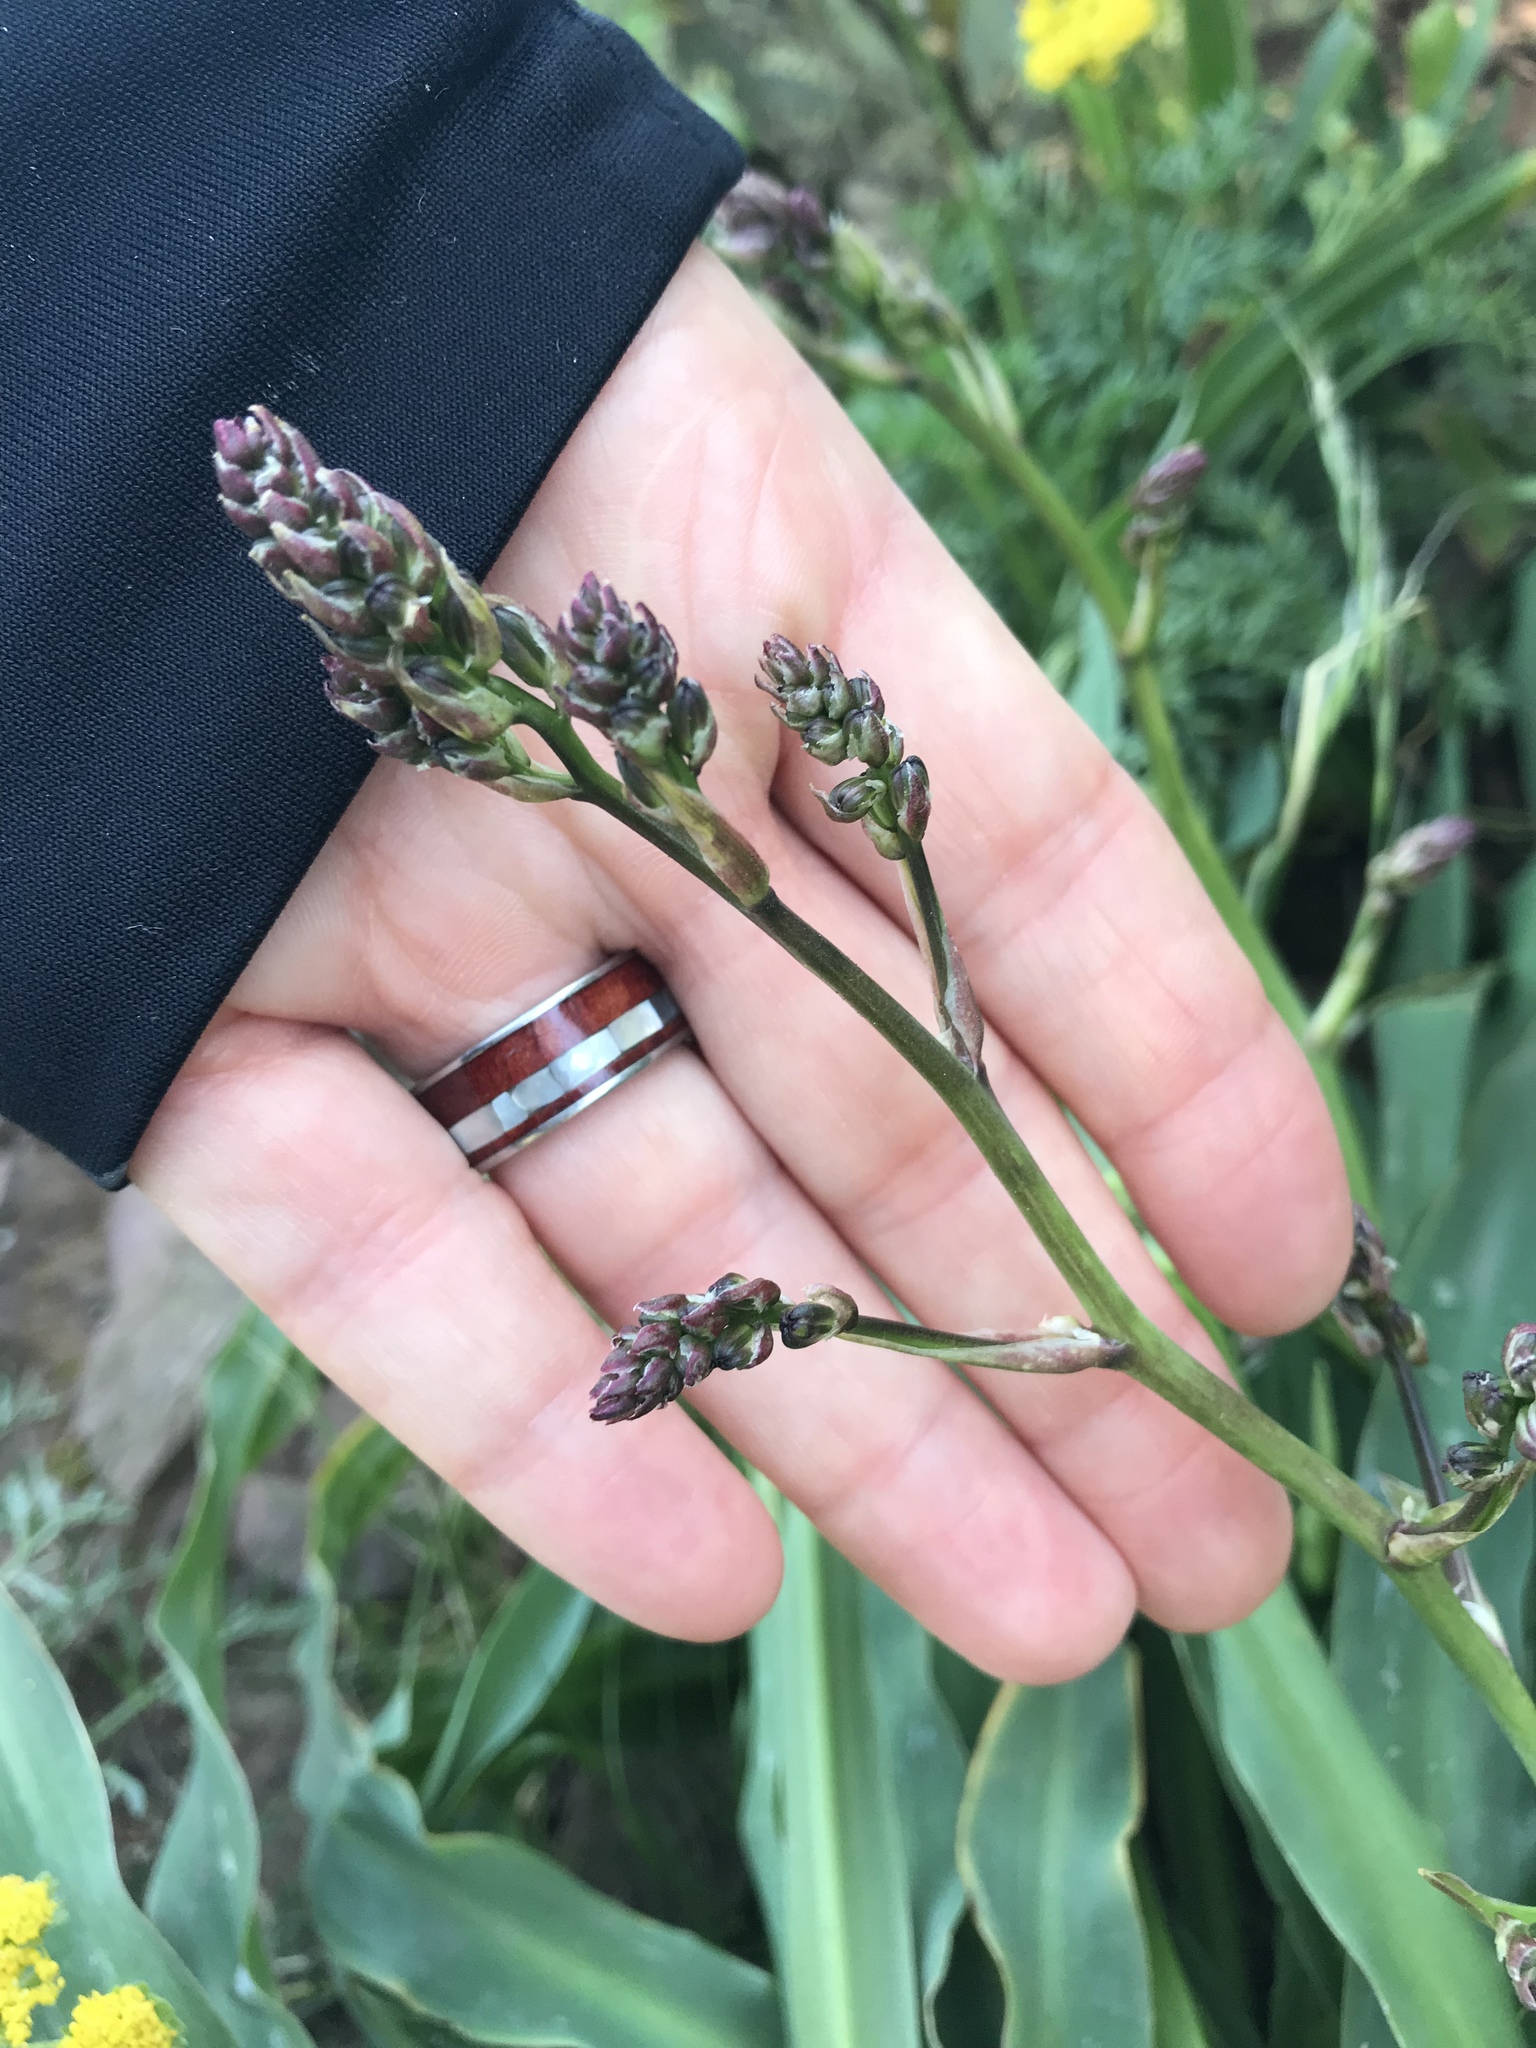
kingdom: Plantae
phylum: Tracheophyta
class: Liliopsida
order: Asparagales
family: Asparagaceae
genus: Chlorogalum
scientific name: Chlorogalum pomeridianum
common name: Amole
